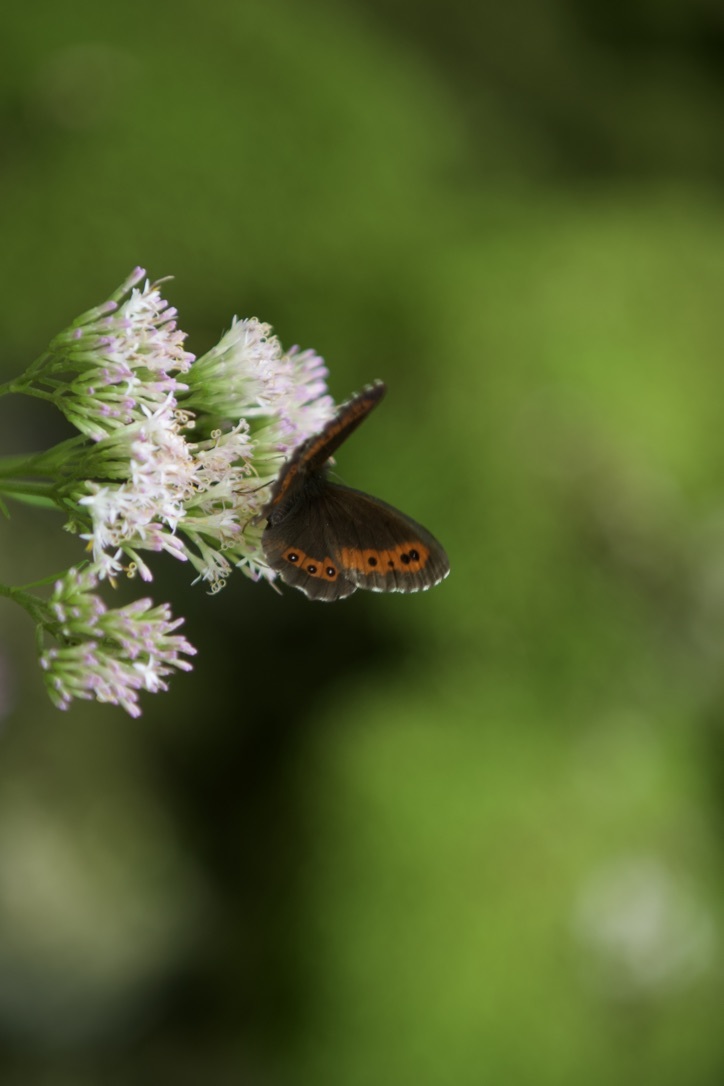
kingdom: Animalia
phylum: Arthropoda
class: Insecta
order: Lepidoptera
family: Nymphalidae
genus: Erebia
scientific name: Erebia ligea
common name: Arran brown
